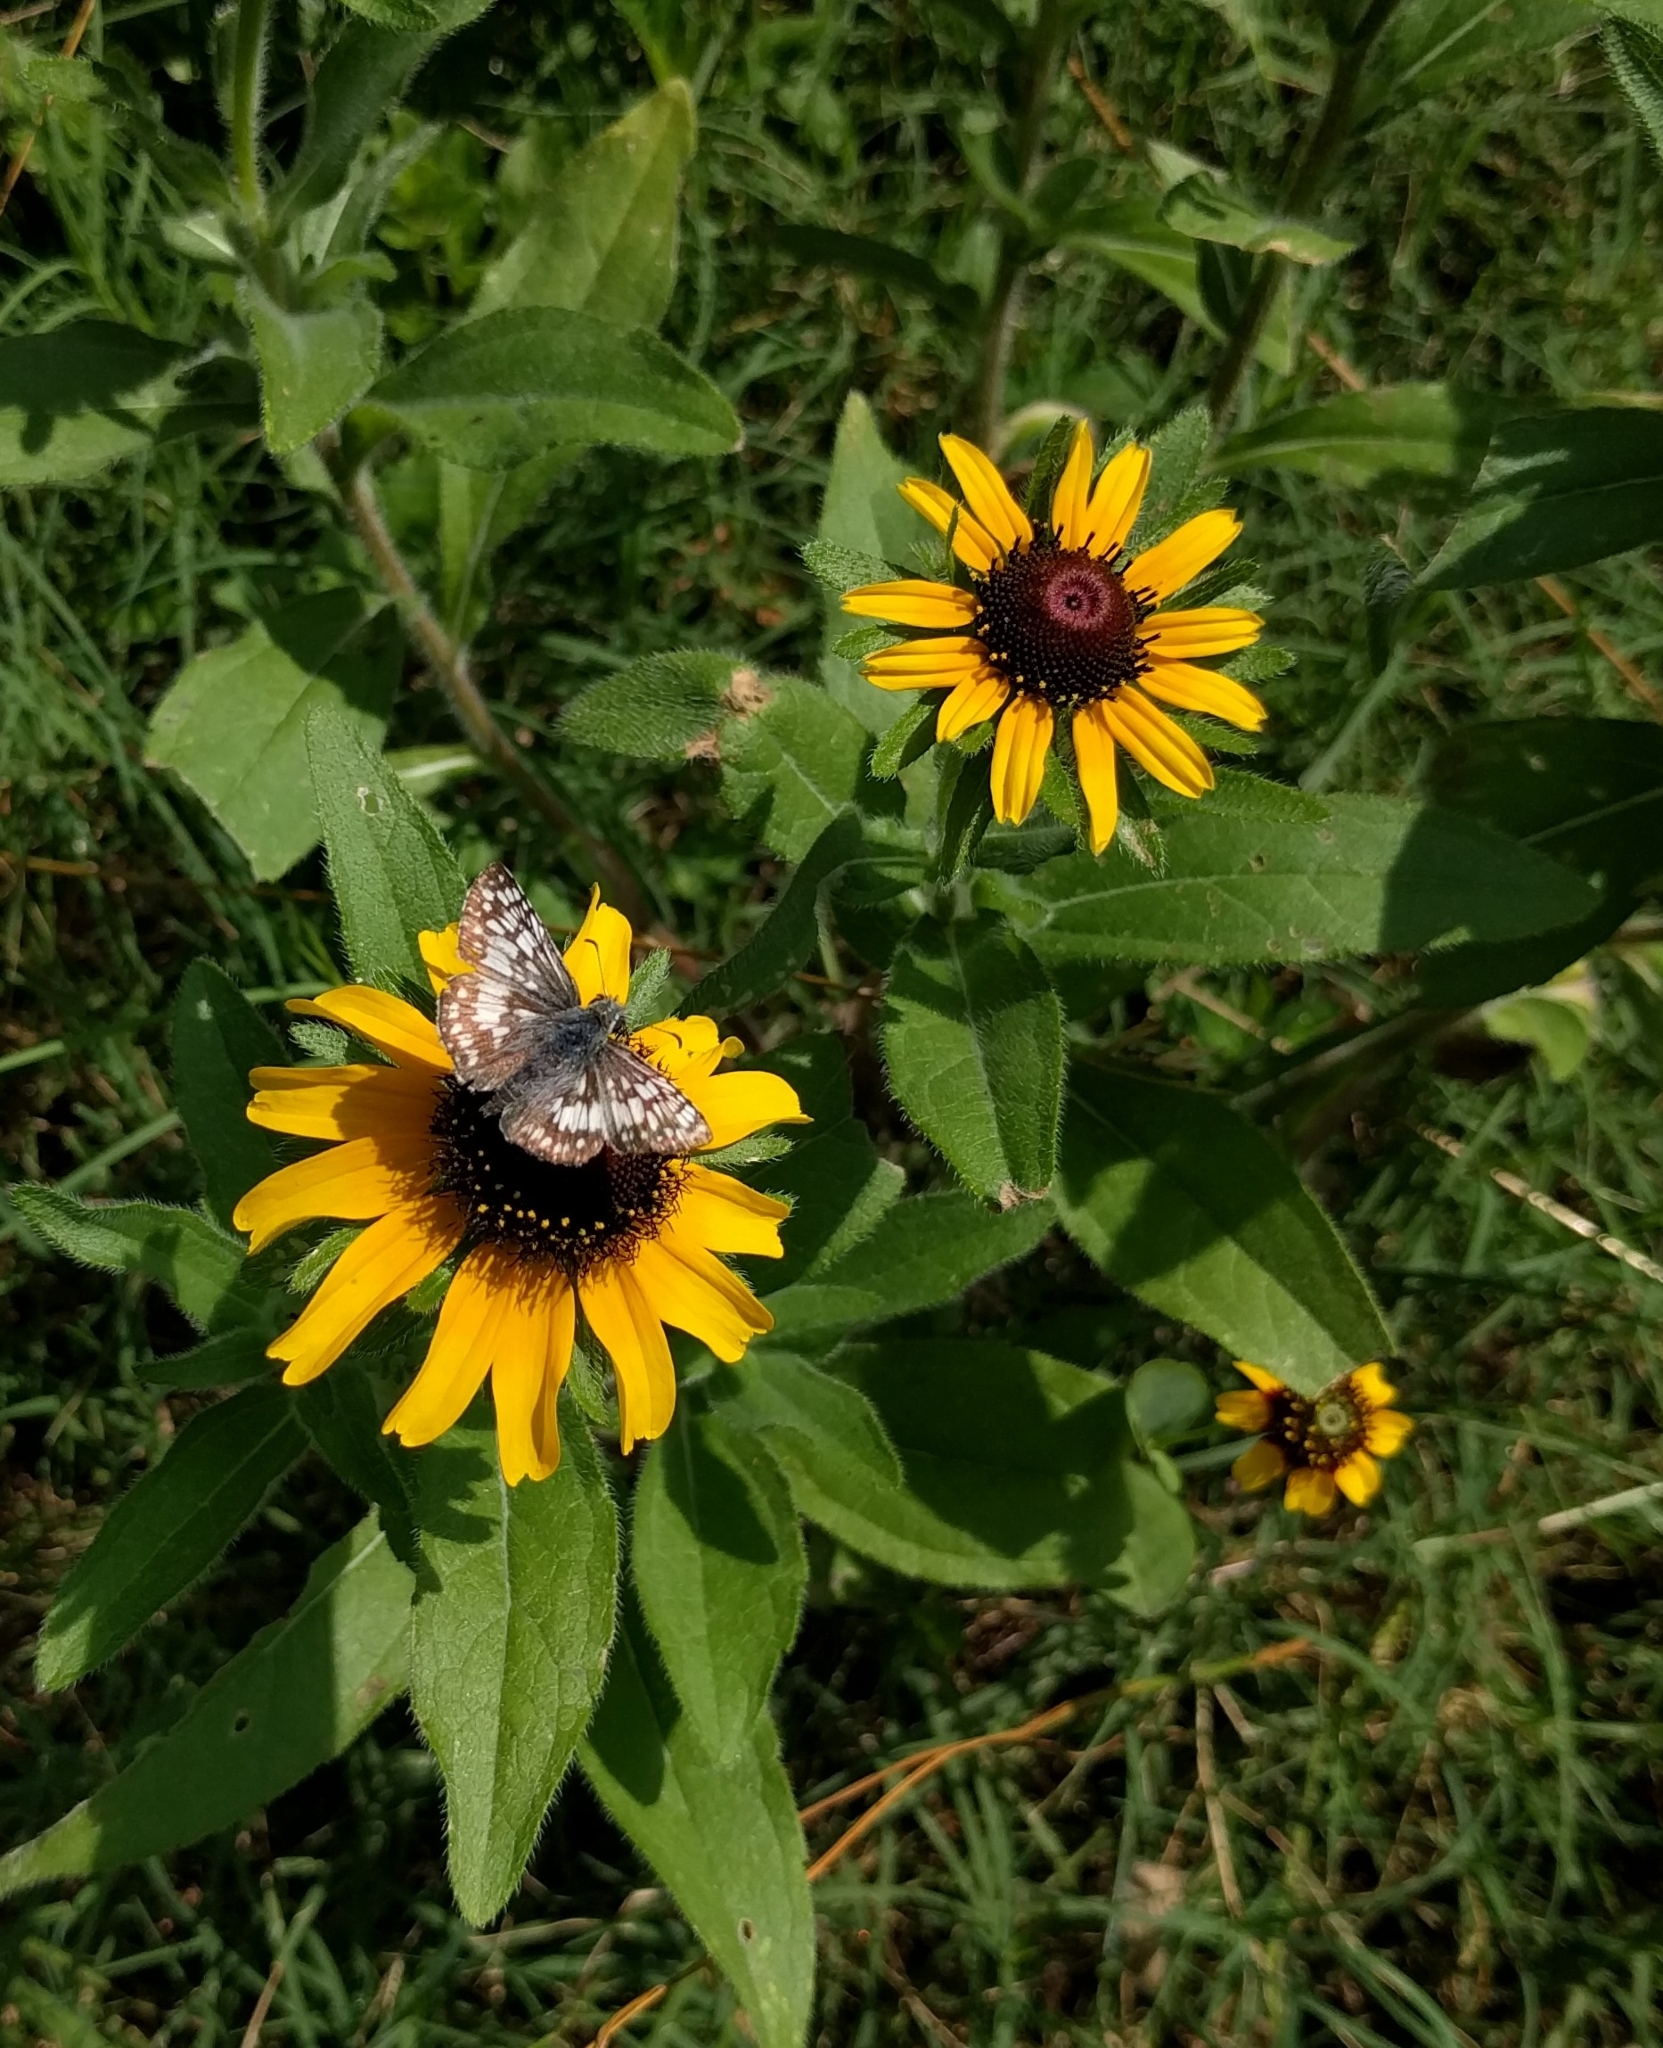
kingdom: Animalia
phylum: Arthropoda
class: Insecta
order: Lepidoptera
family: Hesperiidae
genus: Burnsius
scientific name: Burnsius
